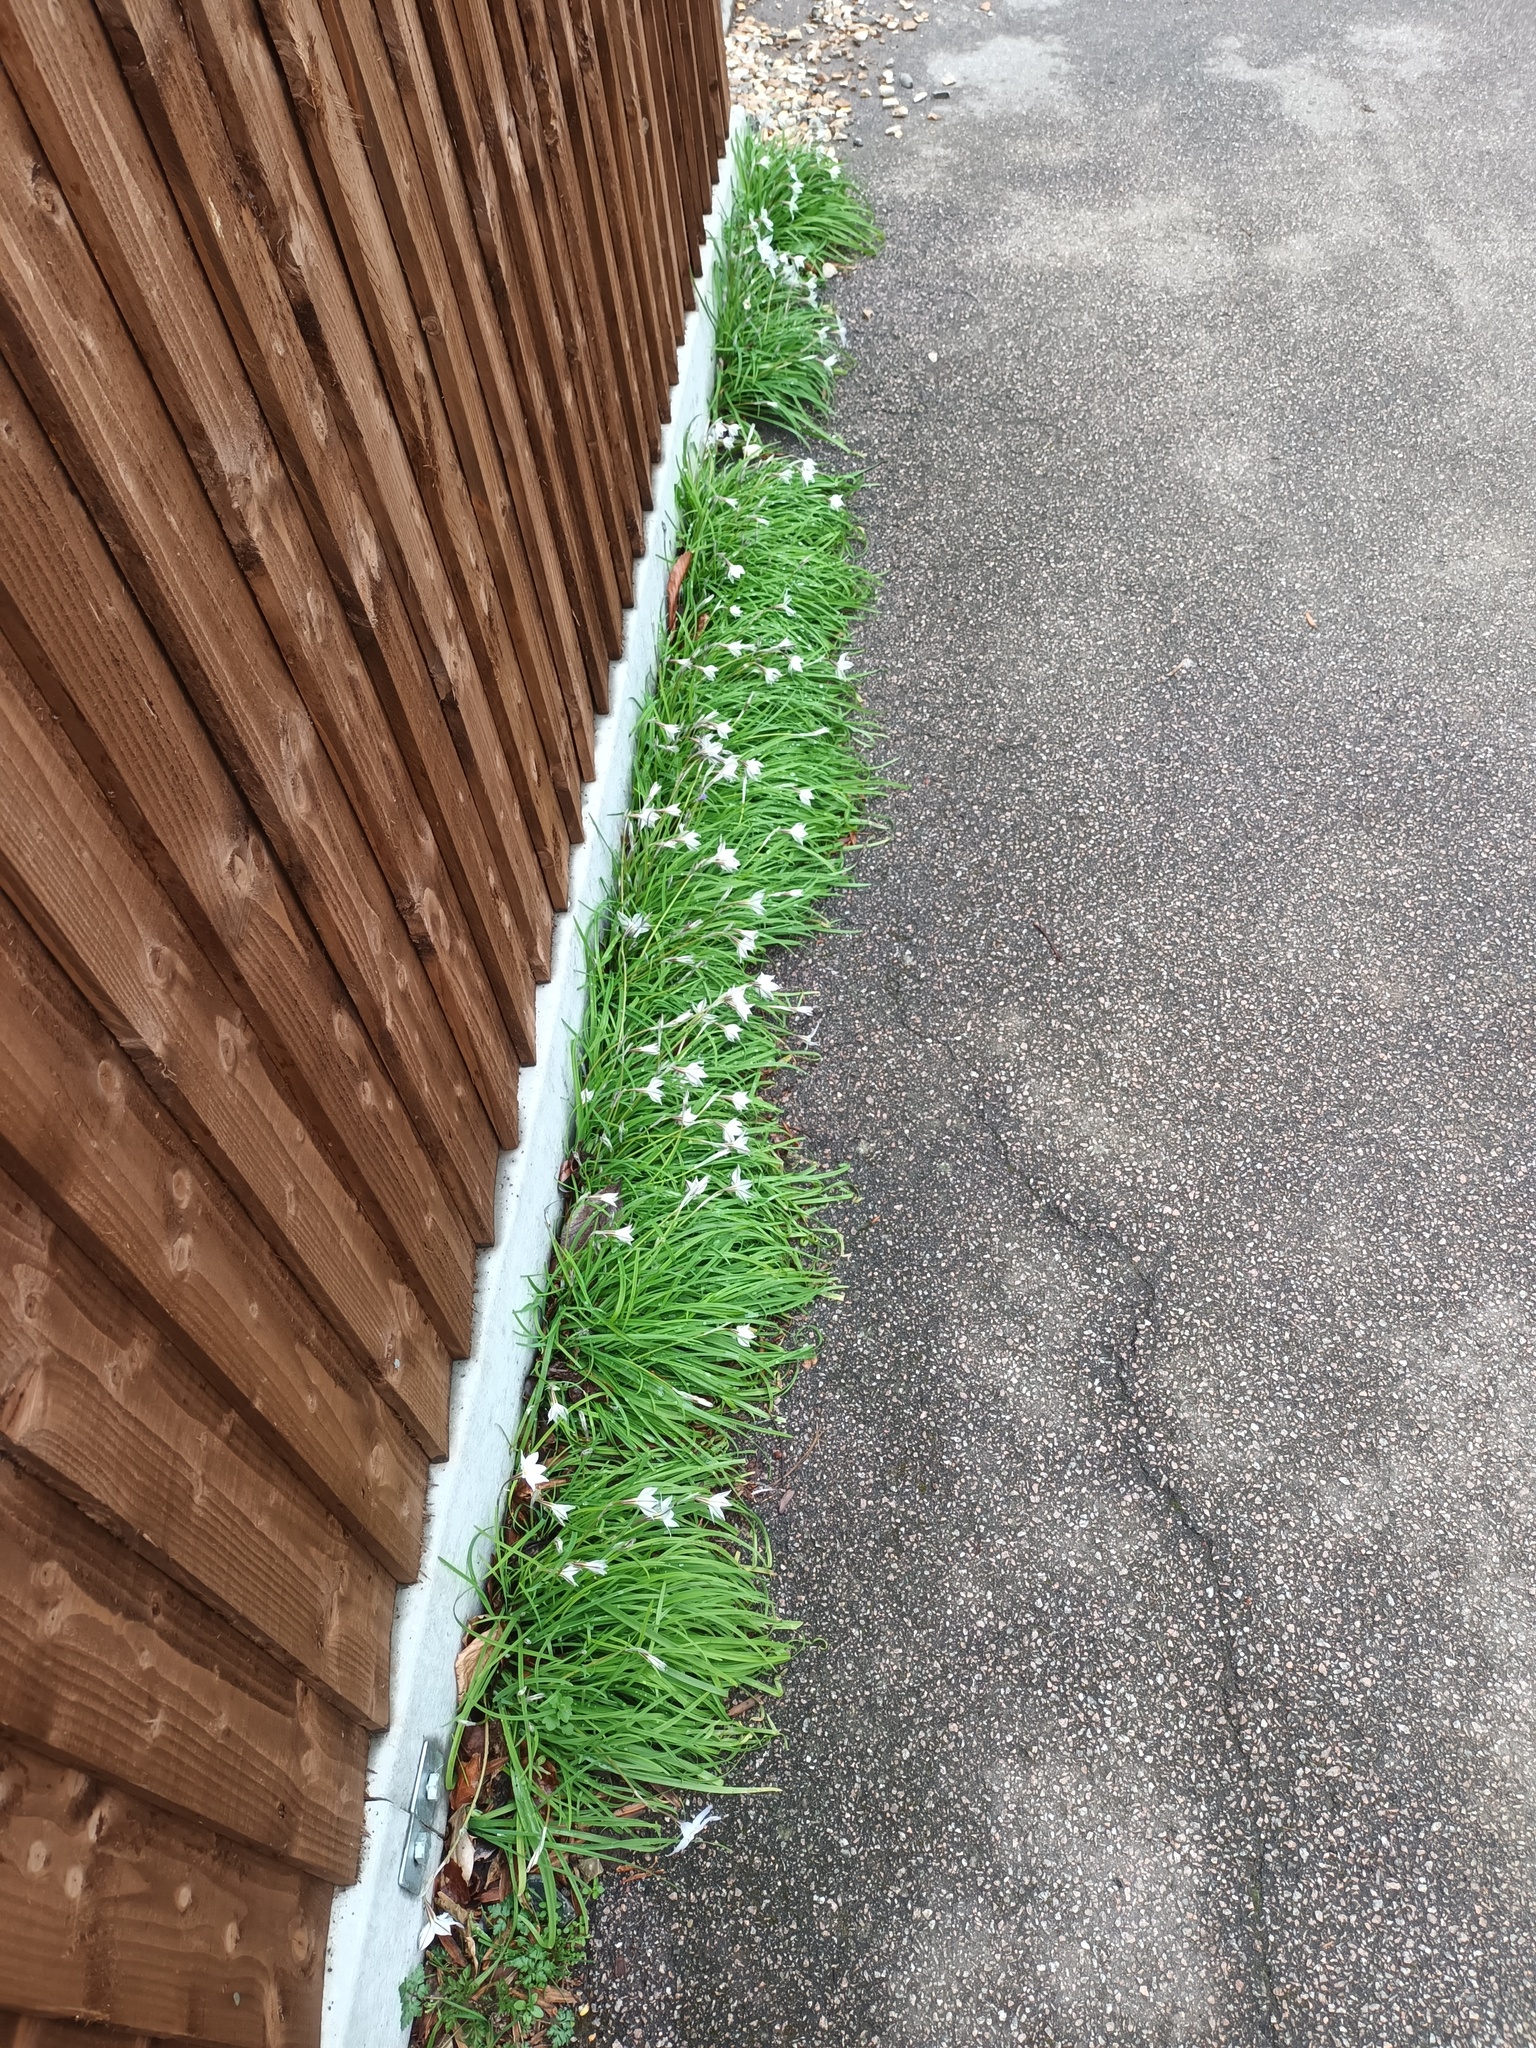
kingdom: Plantae
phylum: Tracheophyta
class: Liliopsida
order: Asparagales
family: Amaryllidaceae
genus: Ipheion
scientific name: Ipheion uniflorum
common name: Spring starflower
